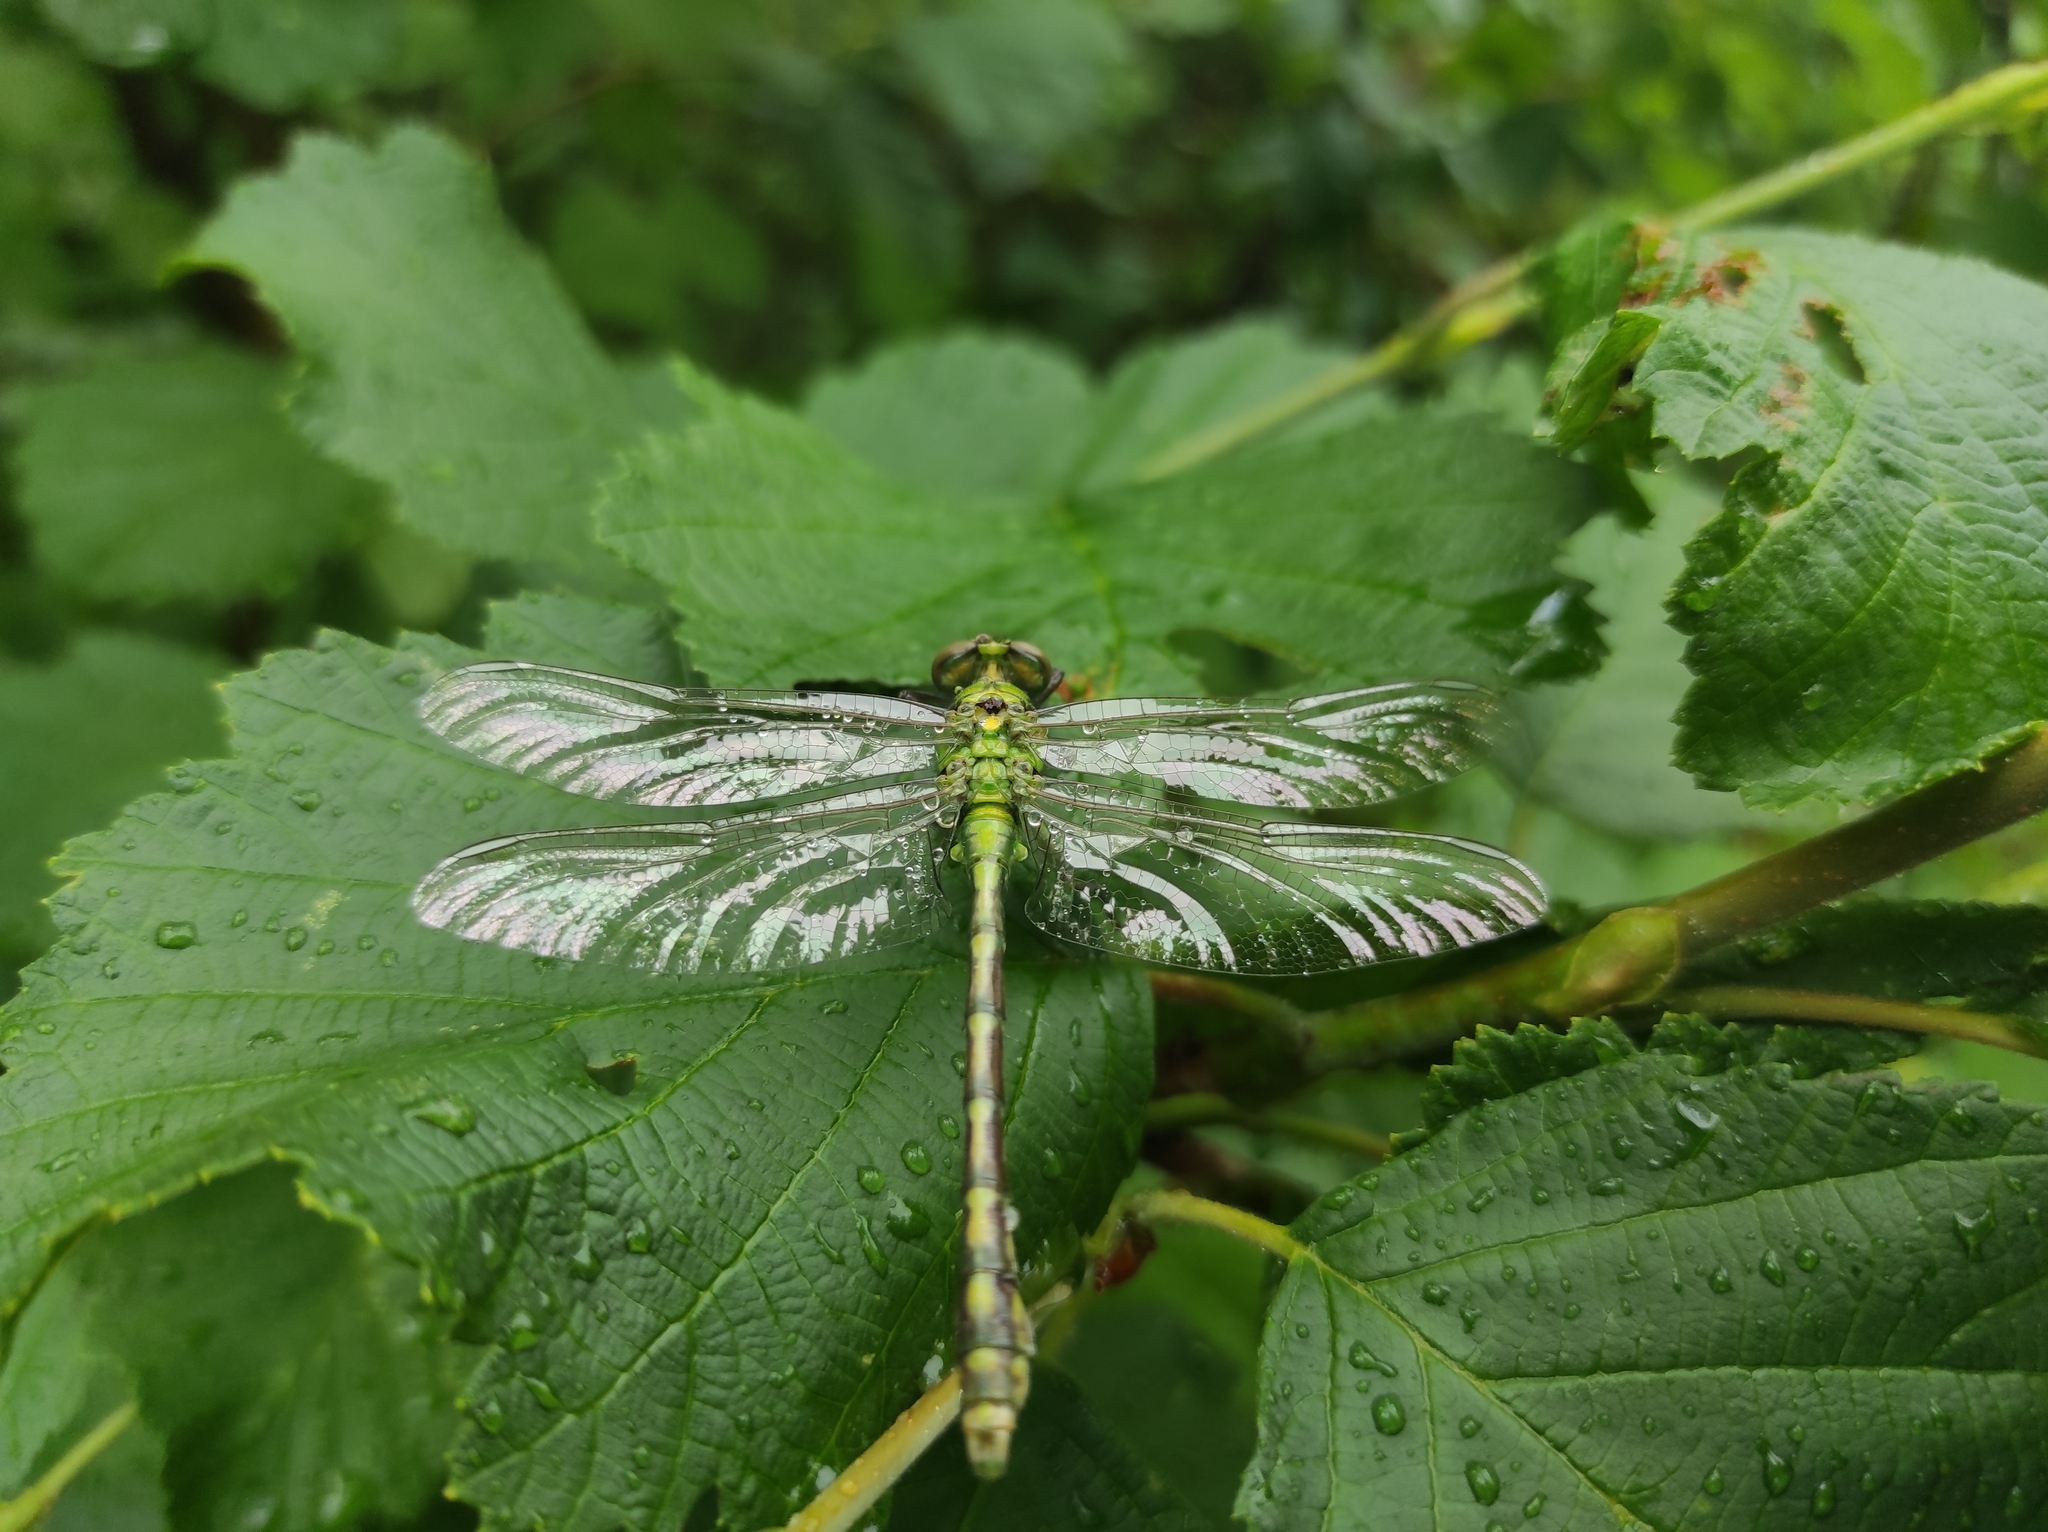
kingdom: Animalia
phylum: Arthropoda
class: Insecta
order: Odonata
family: Gomphidae
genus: Ophiogomphus
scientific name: Ophiogomphus obscurus
